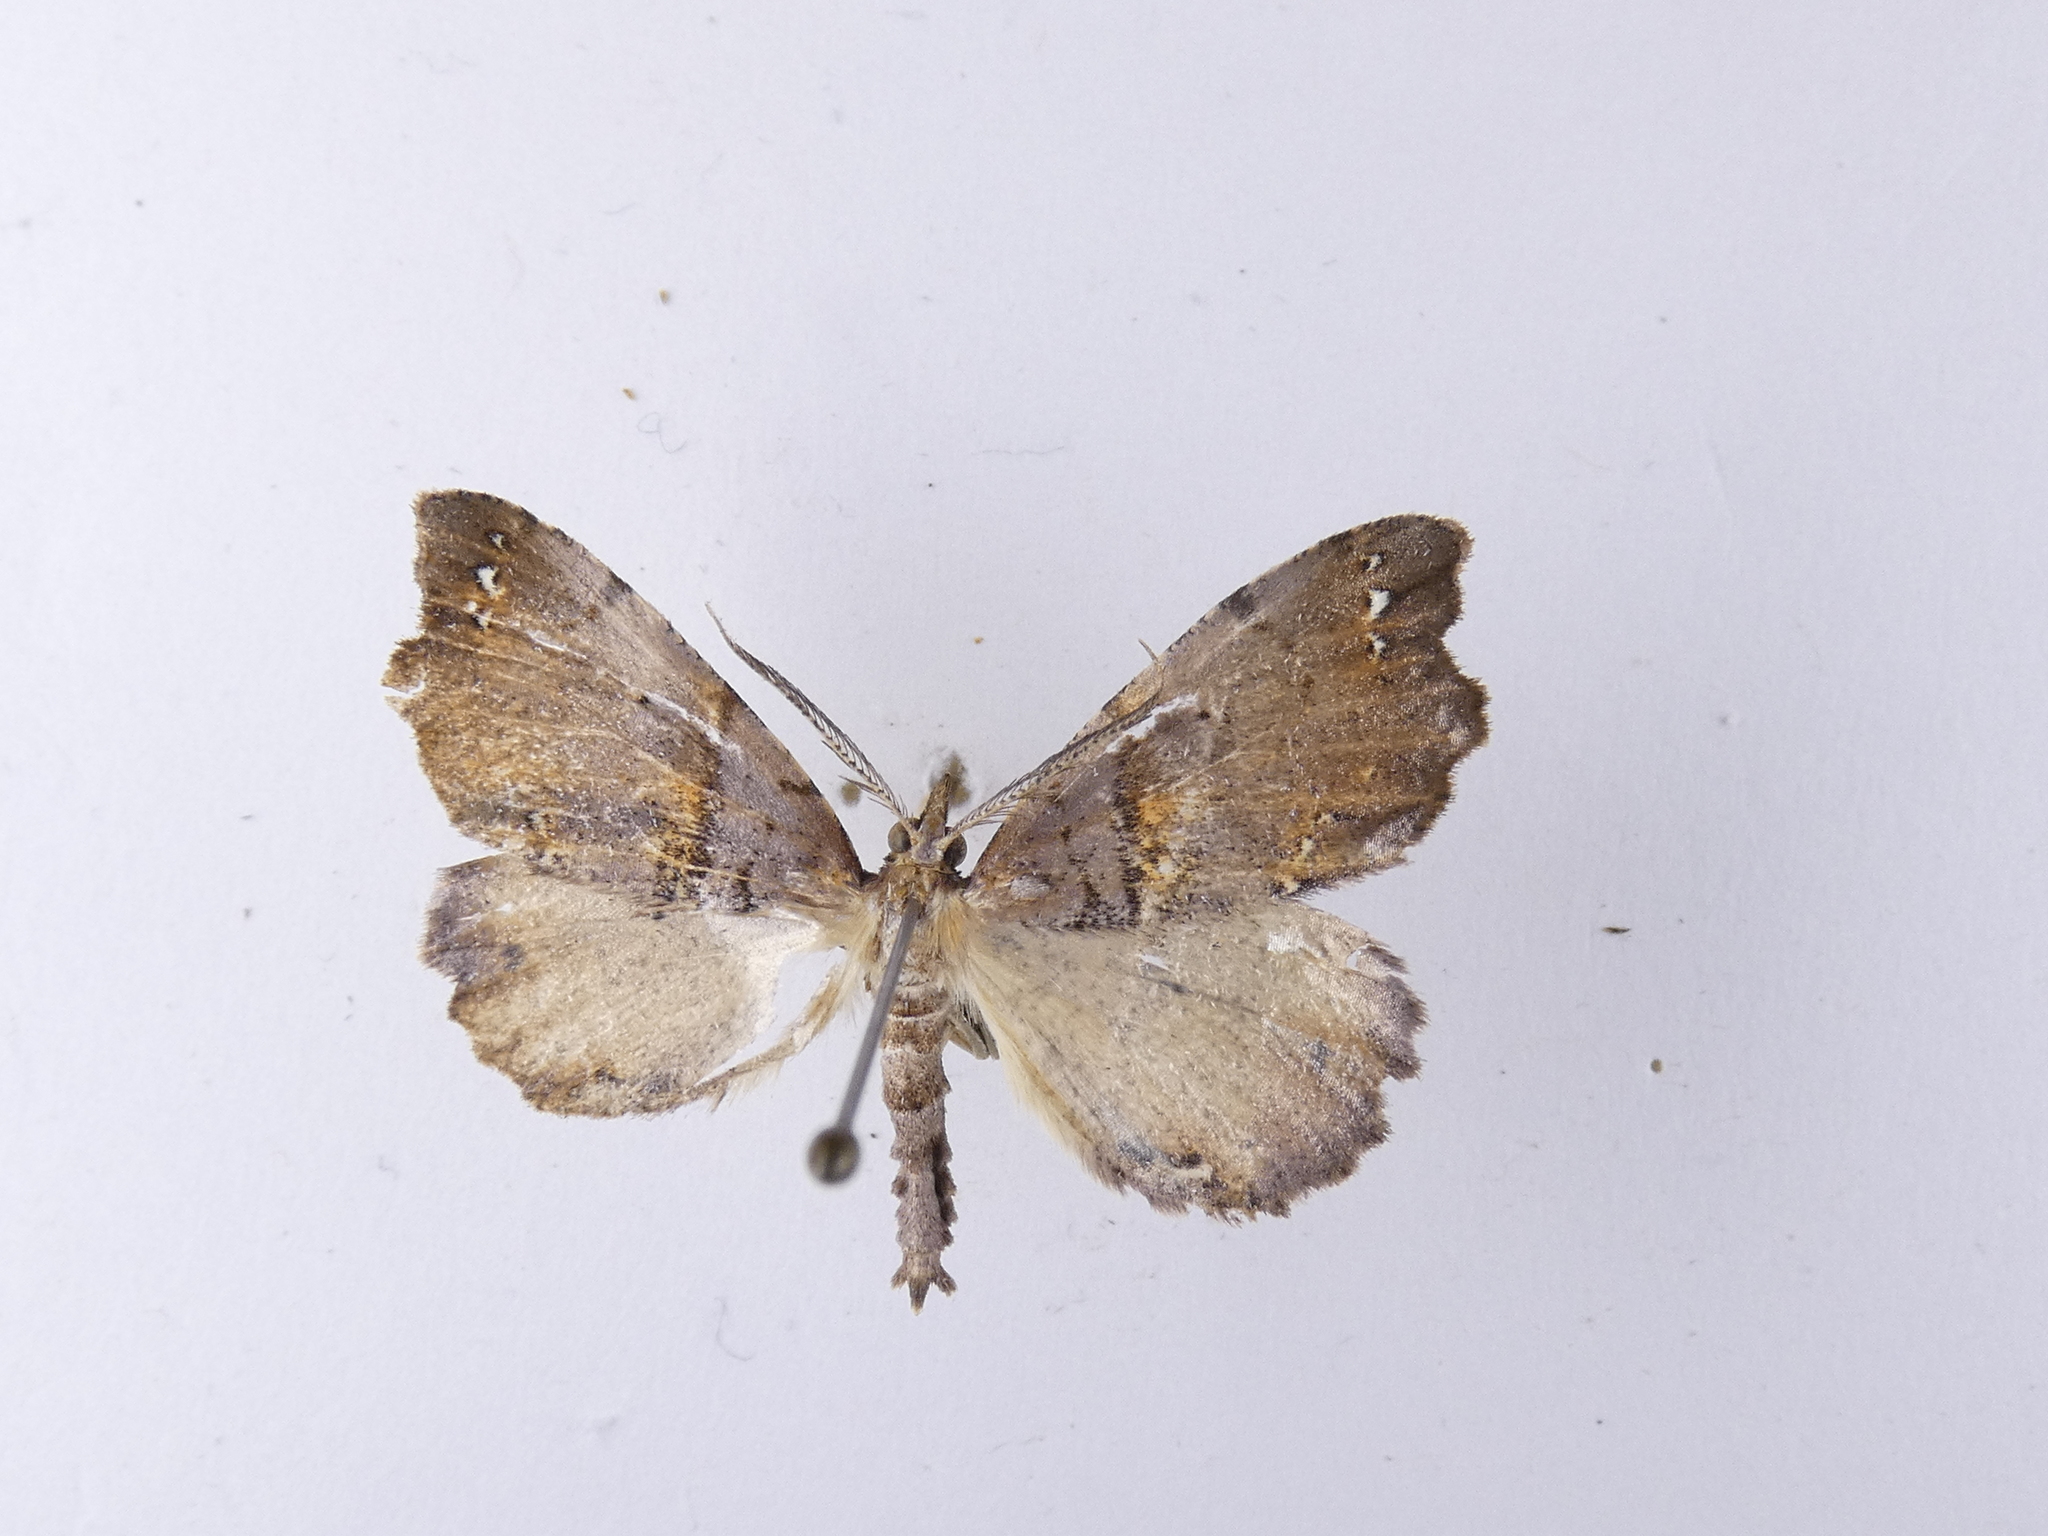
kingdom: Animalia
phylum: Arthropoda
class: Insecta
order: Lepidoptera
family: Geometridae
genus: Chalastra
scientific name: Chalastra pellurgata
